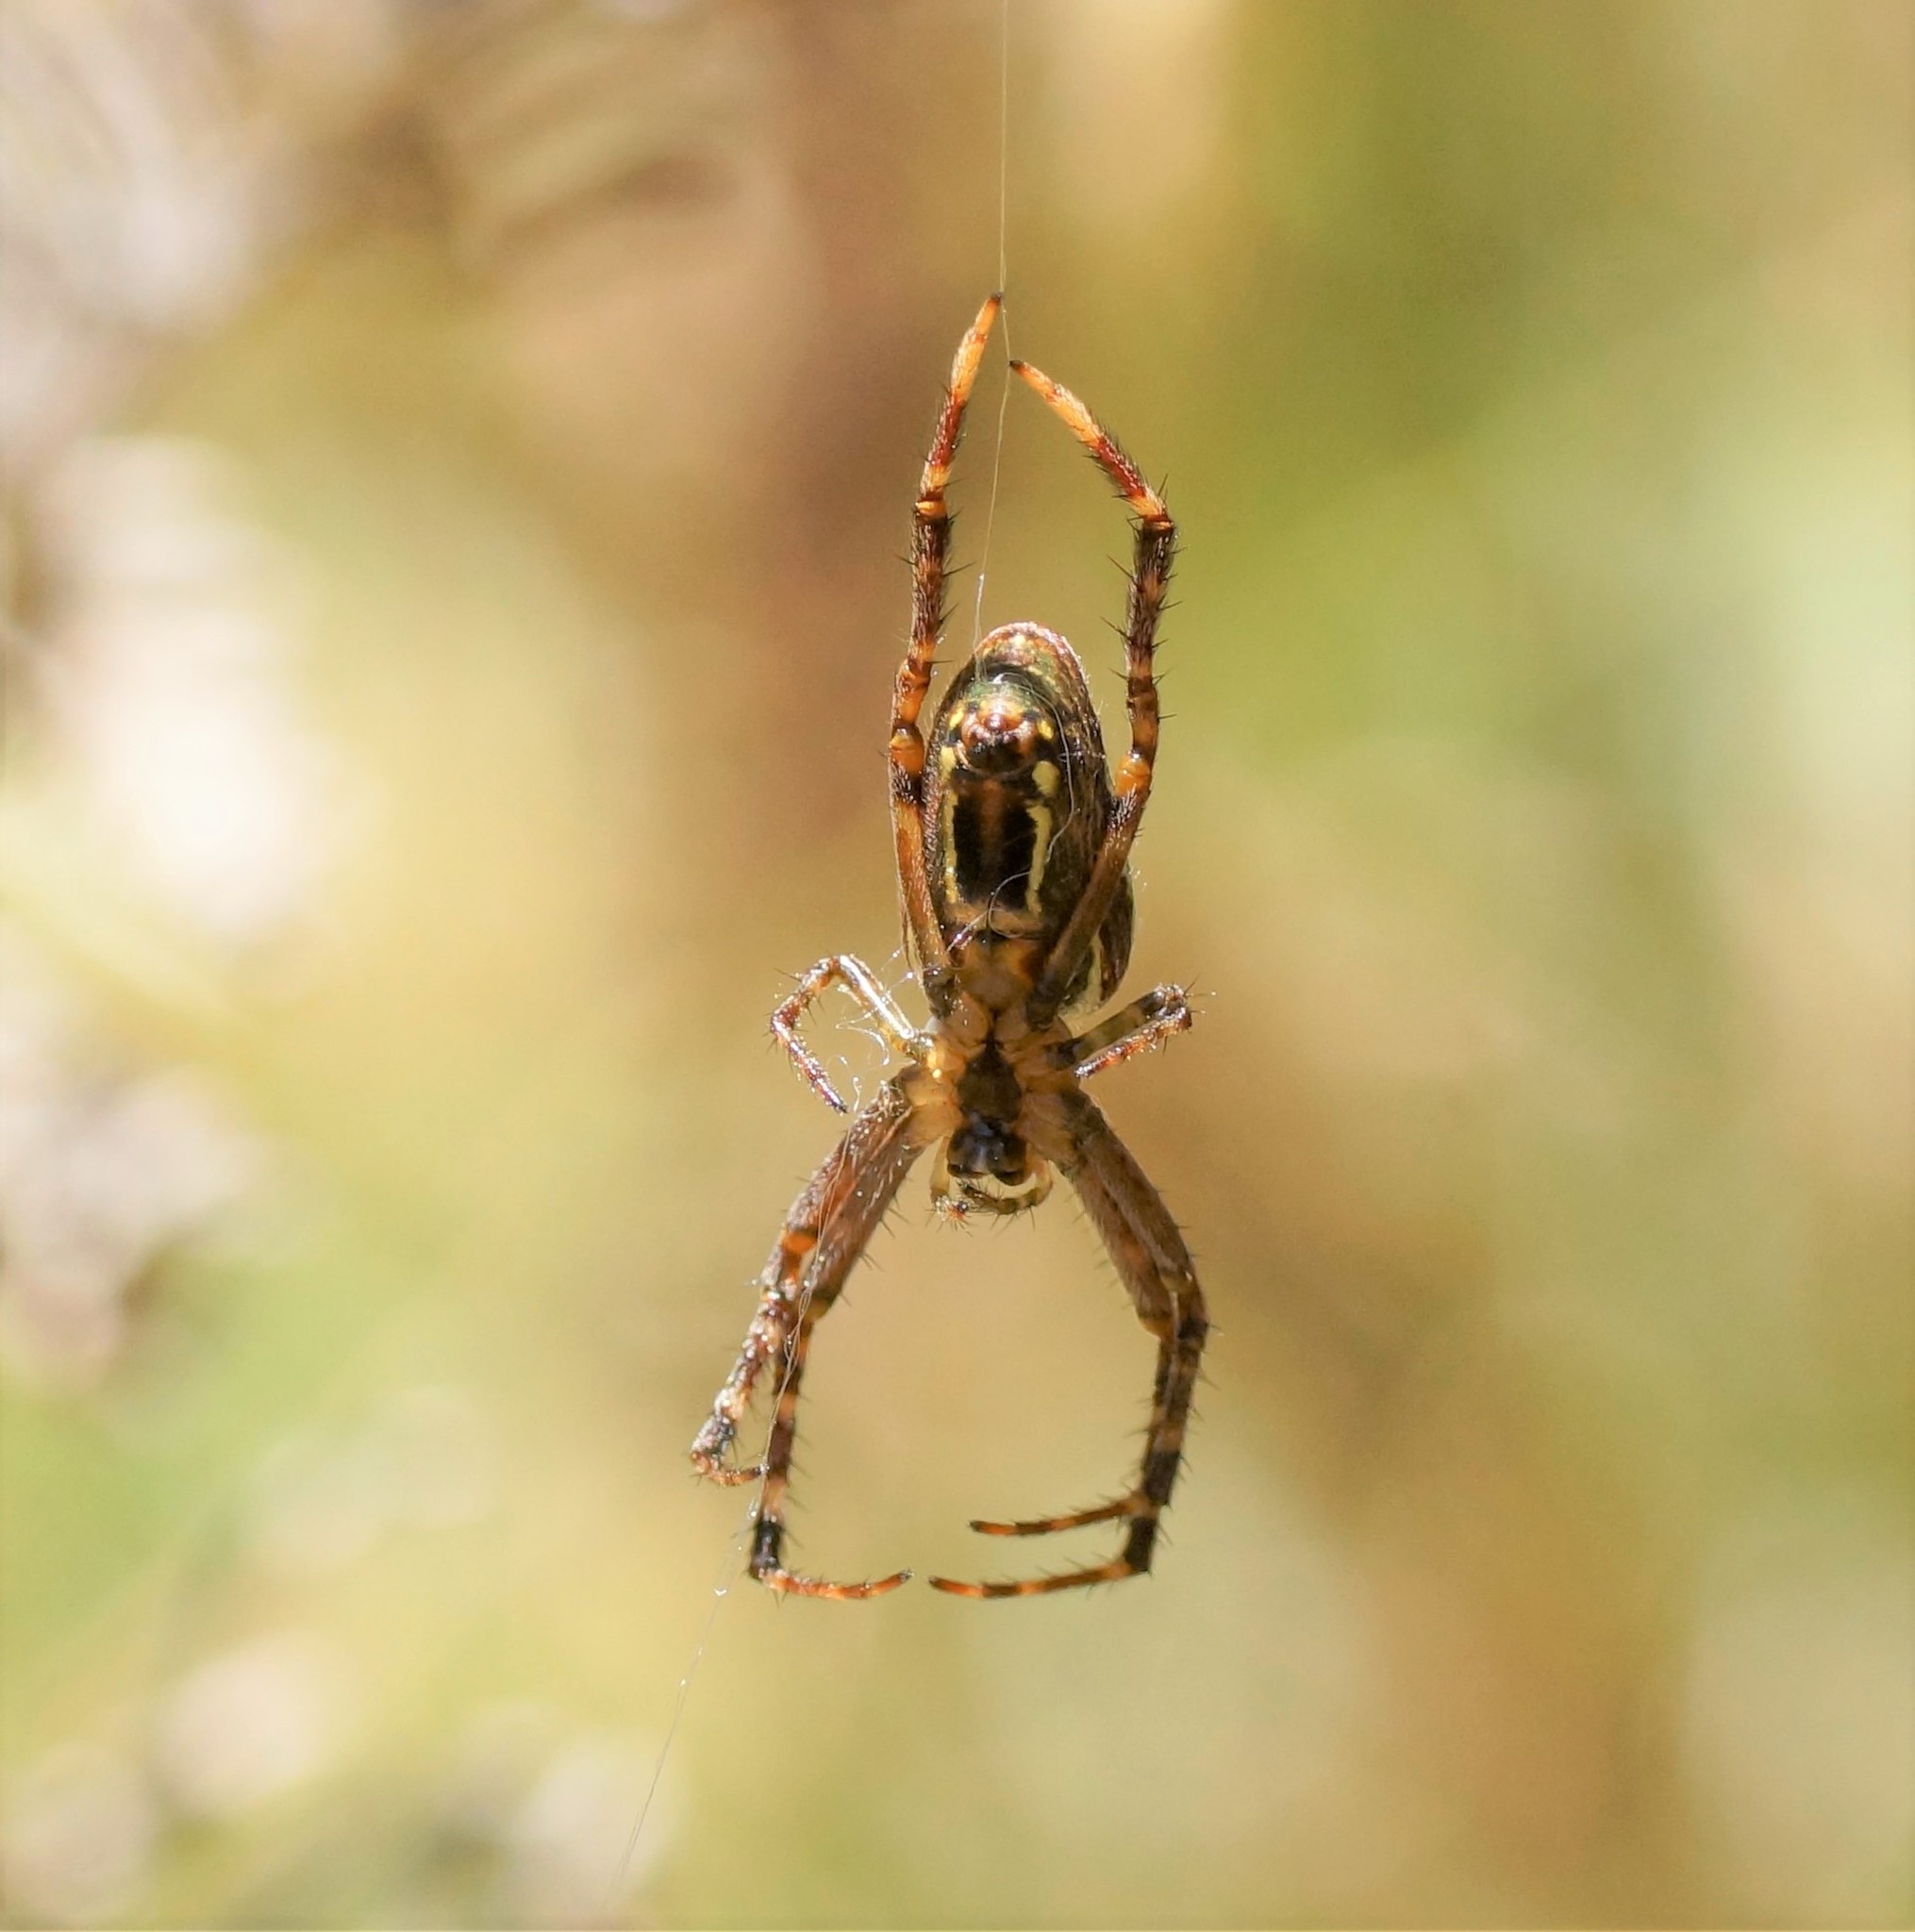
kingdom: Animalia
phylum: Arthropoda
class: Arachnida
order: Araneae
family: Araneidae
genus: Plebs
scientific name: Plebs bradleyi
